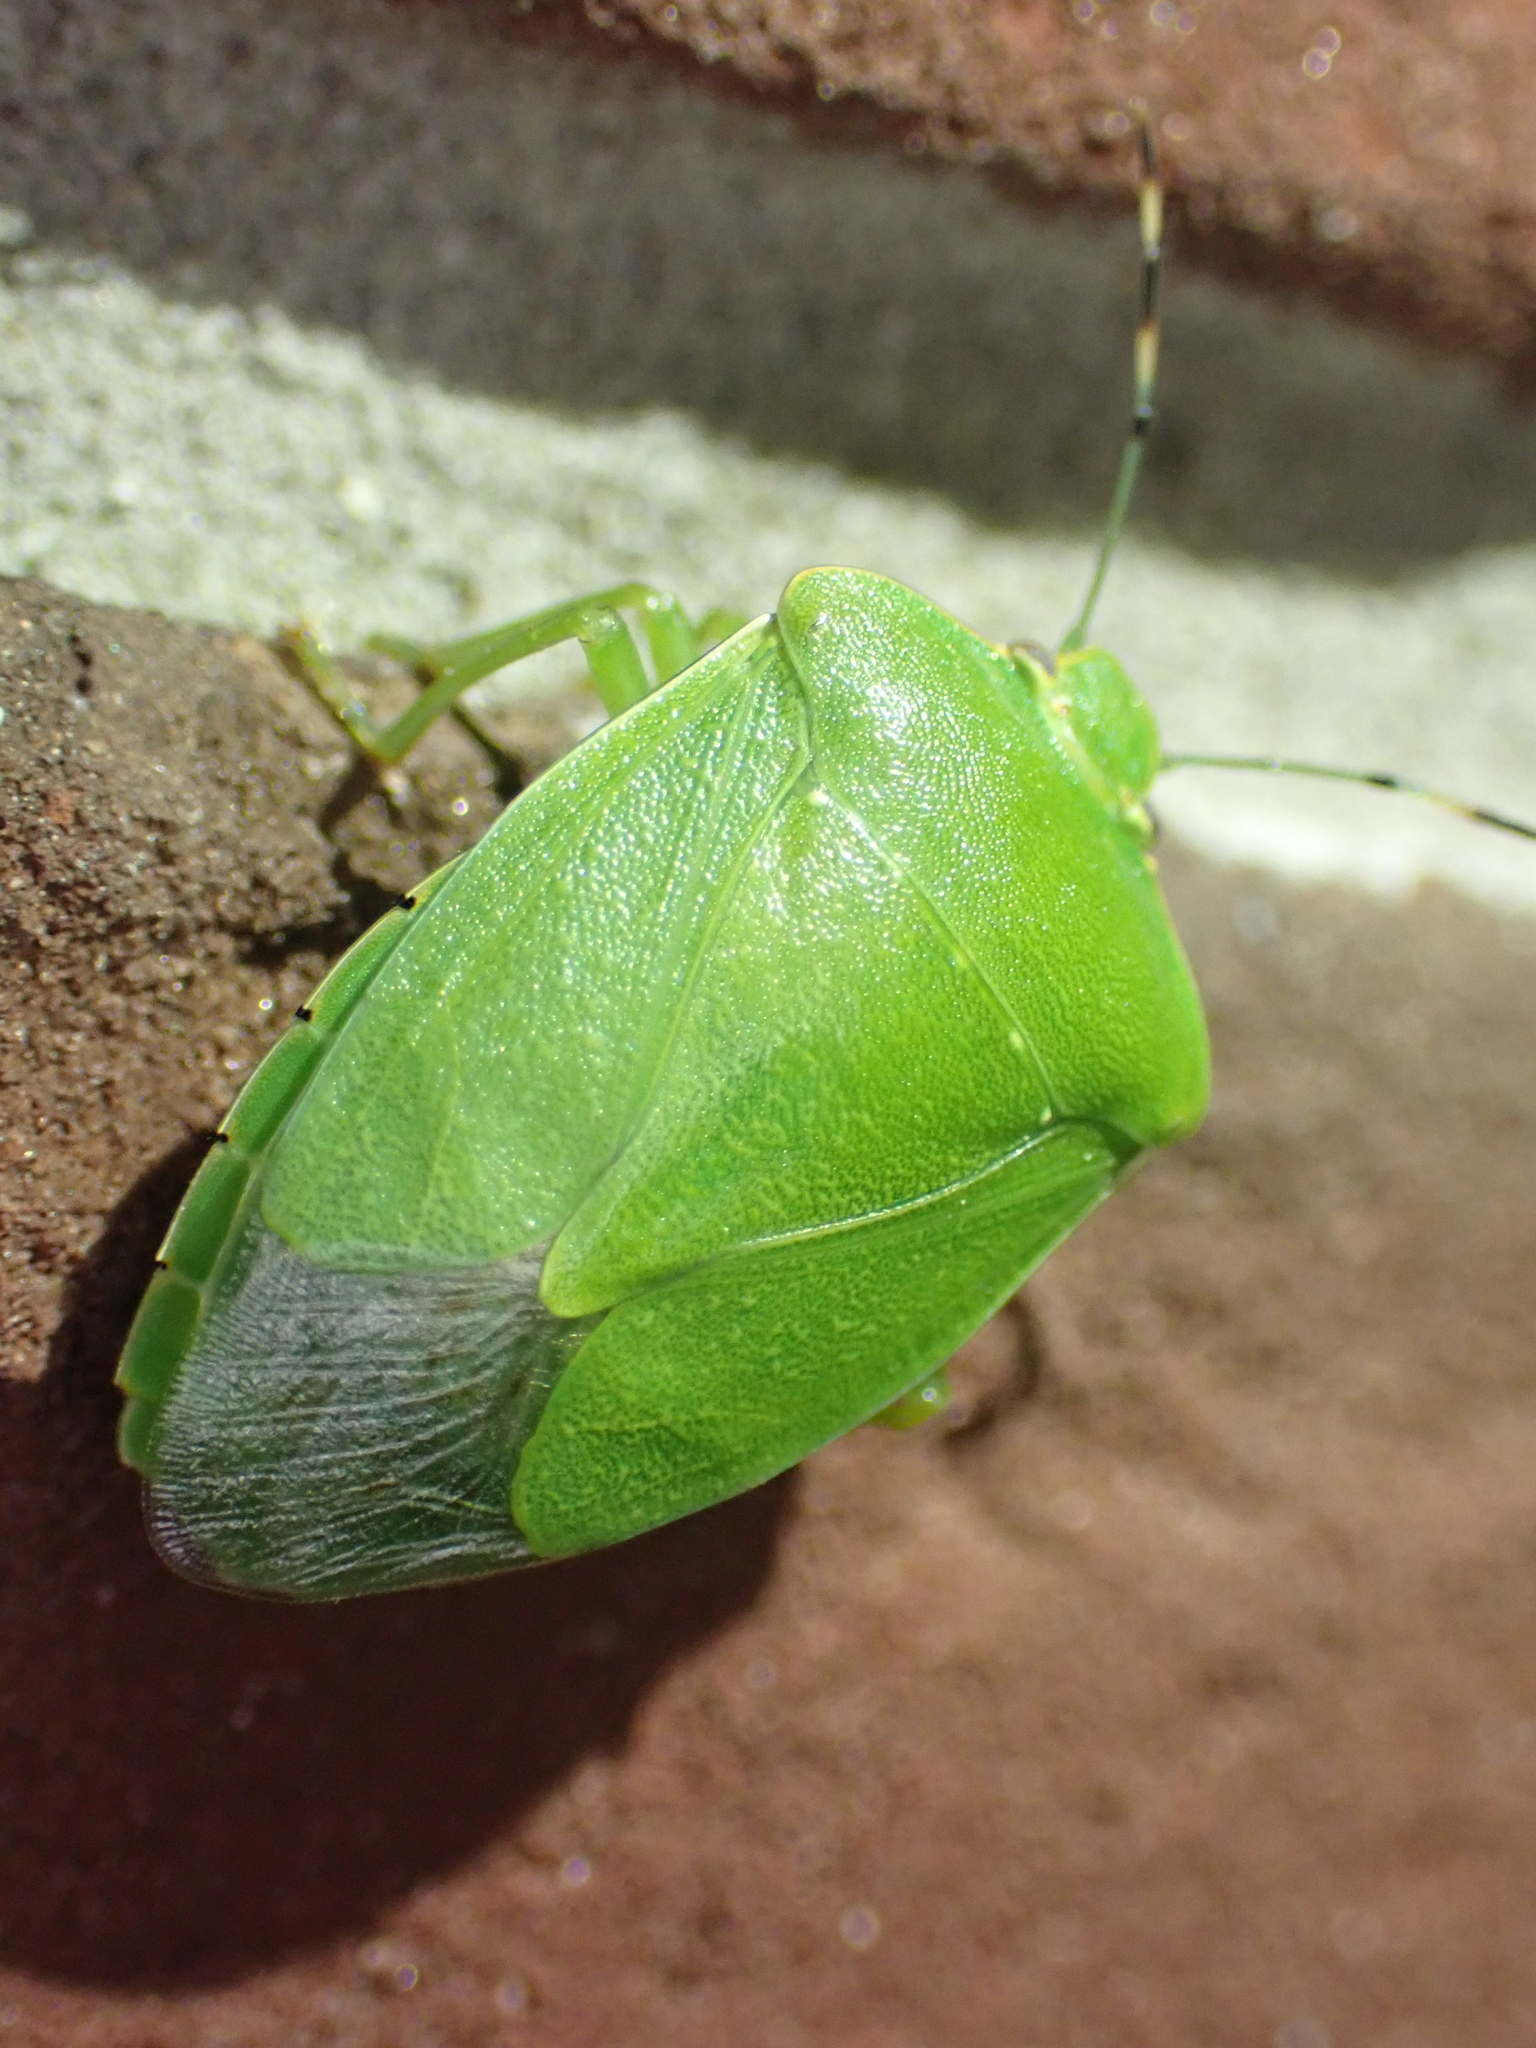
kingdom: Animalia
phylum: Arthropoda
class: Insecta
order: Hemiptera
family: Pentatomidae
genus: Chinavia
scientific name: Chinavia hilaris
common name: Green stink bug
